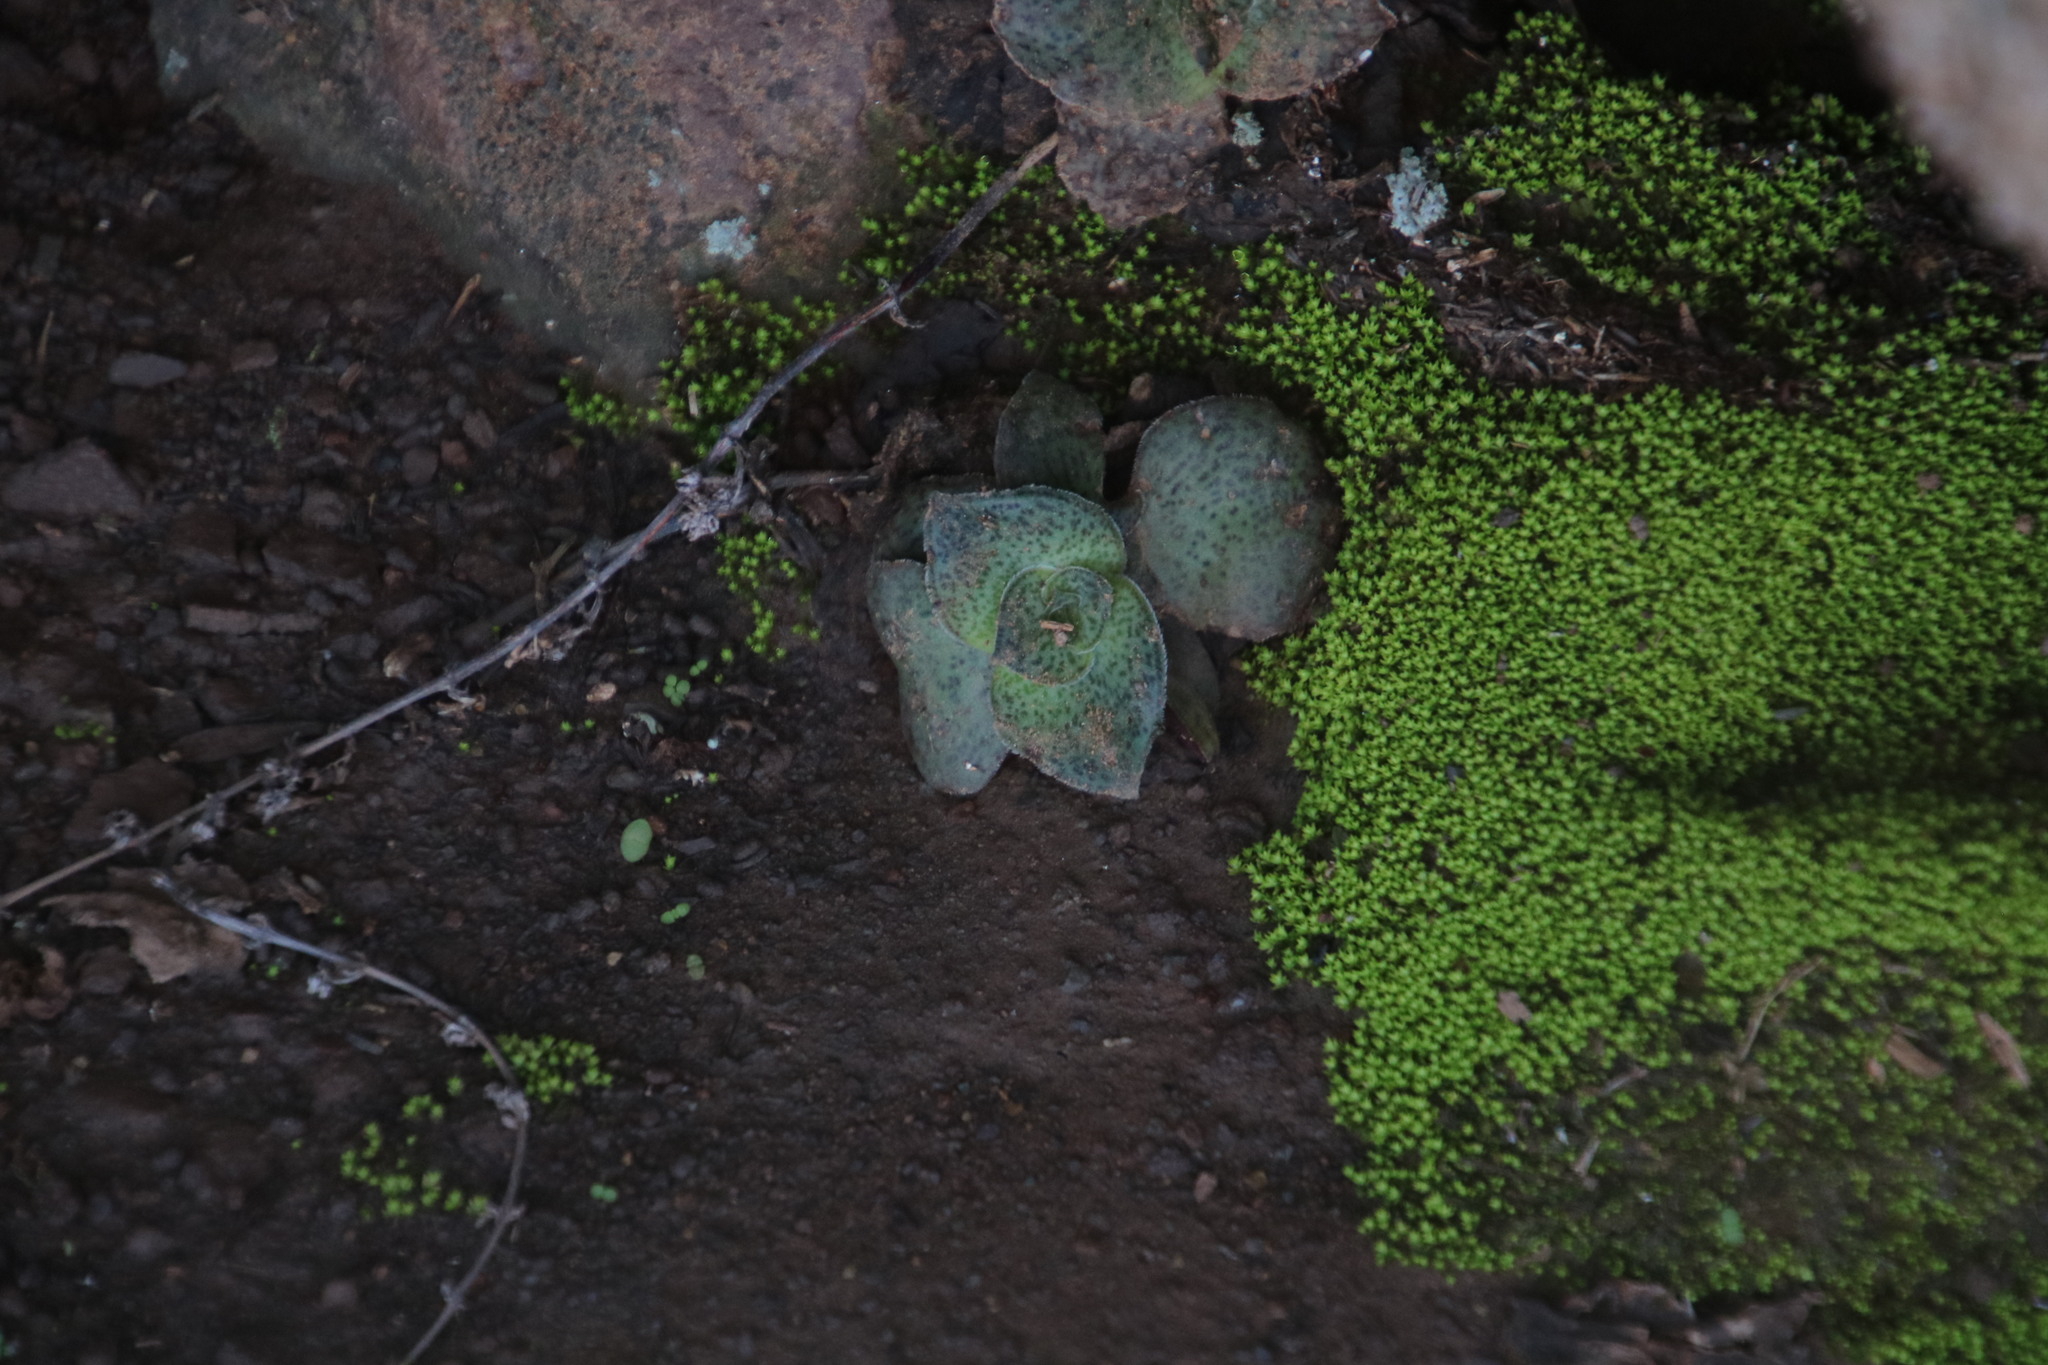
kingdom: Plantae
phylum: Tracheophyta
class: Magnoliopsida
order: Saxifragales
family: Crassulaceae
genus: Crassula
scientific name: Crassula montana
